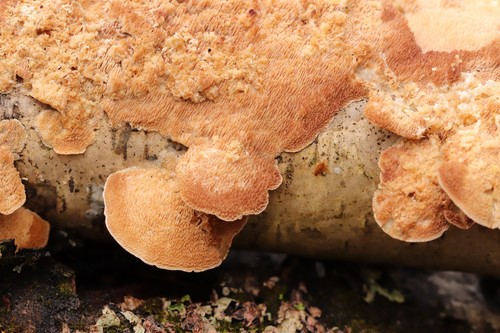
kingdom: Fungi
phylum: Basidiomycota
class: Agaricomycetes
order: Hymenochaetales
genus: Trichaptum
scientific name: Trichaptum biforme
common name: Violet-toothed polypore
